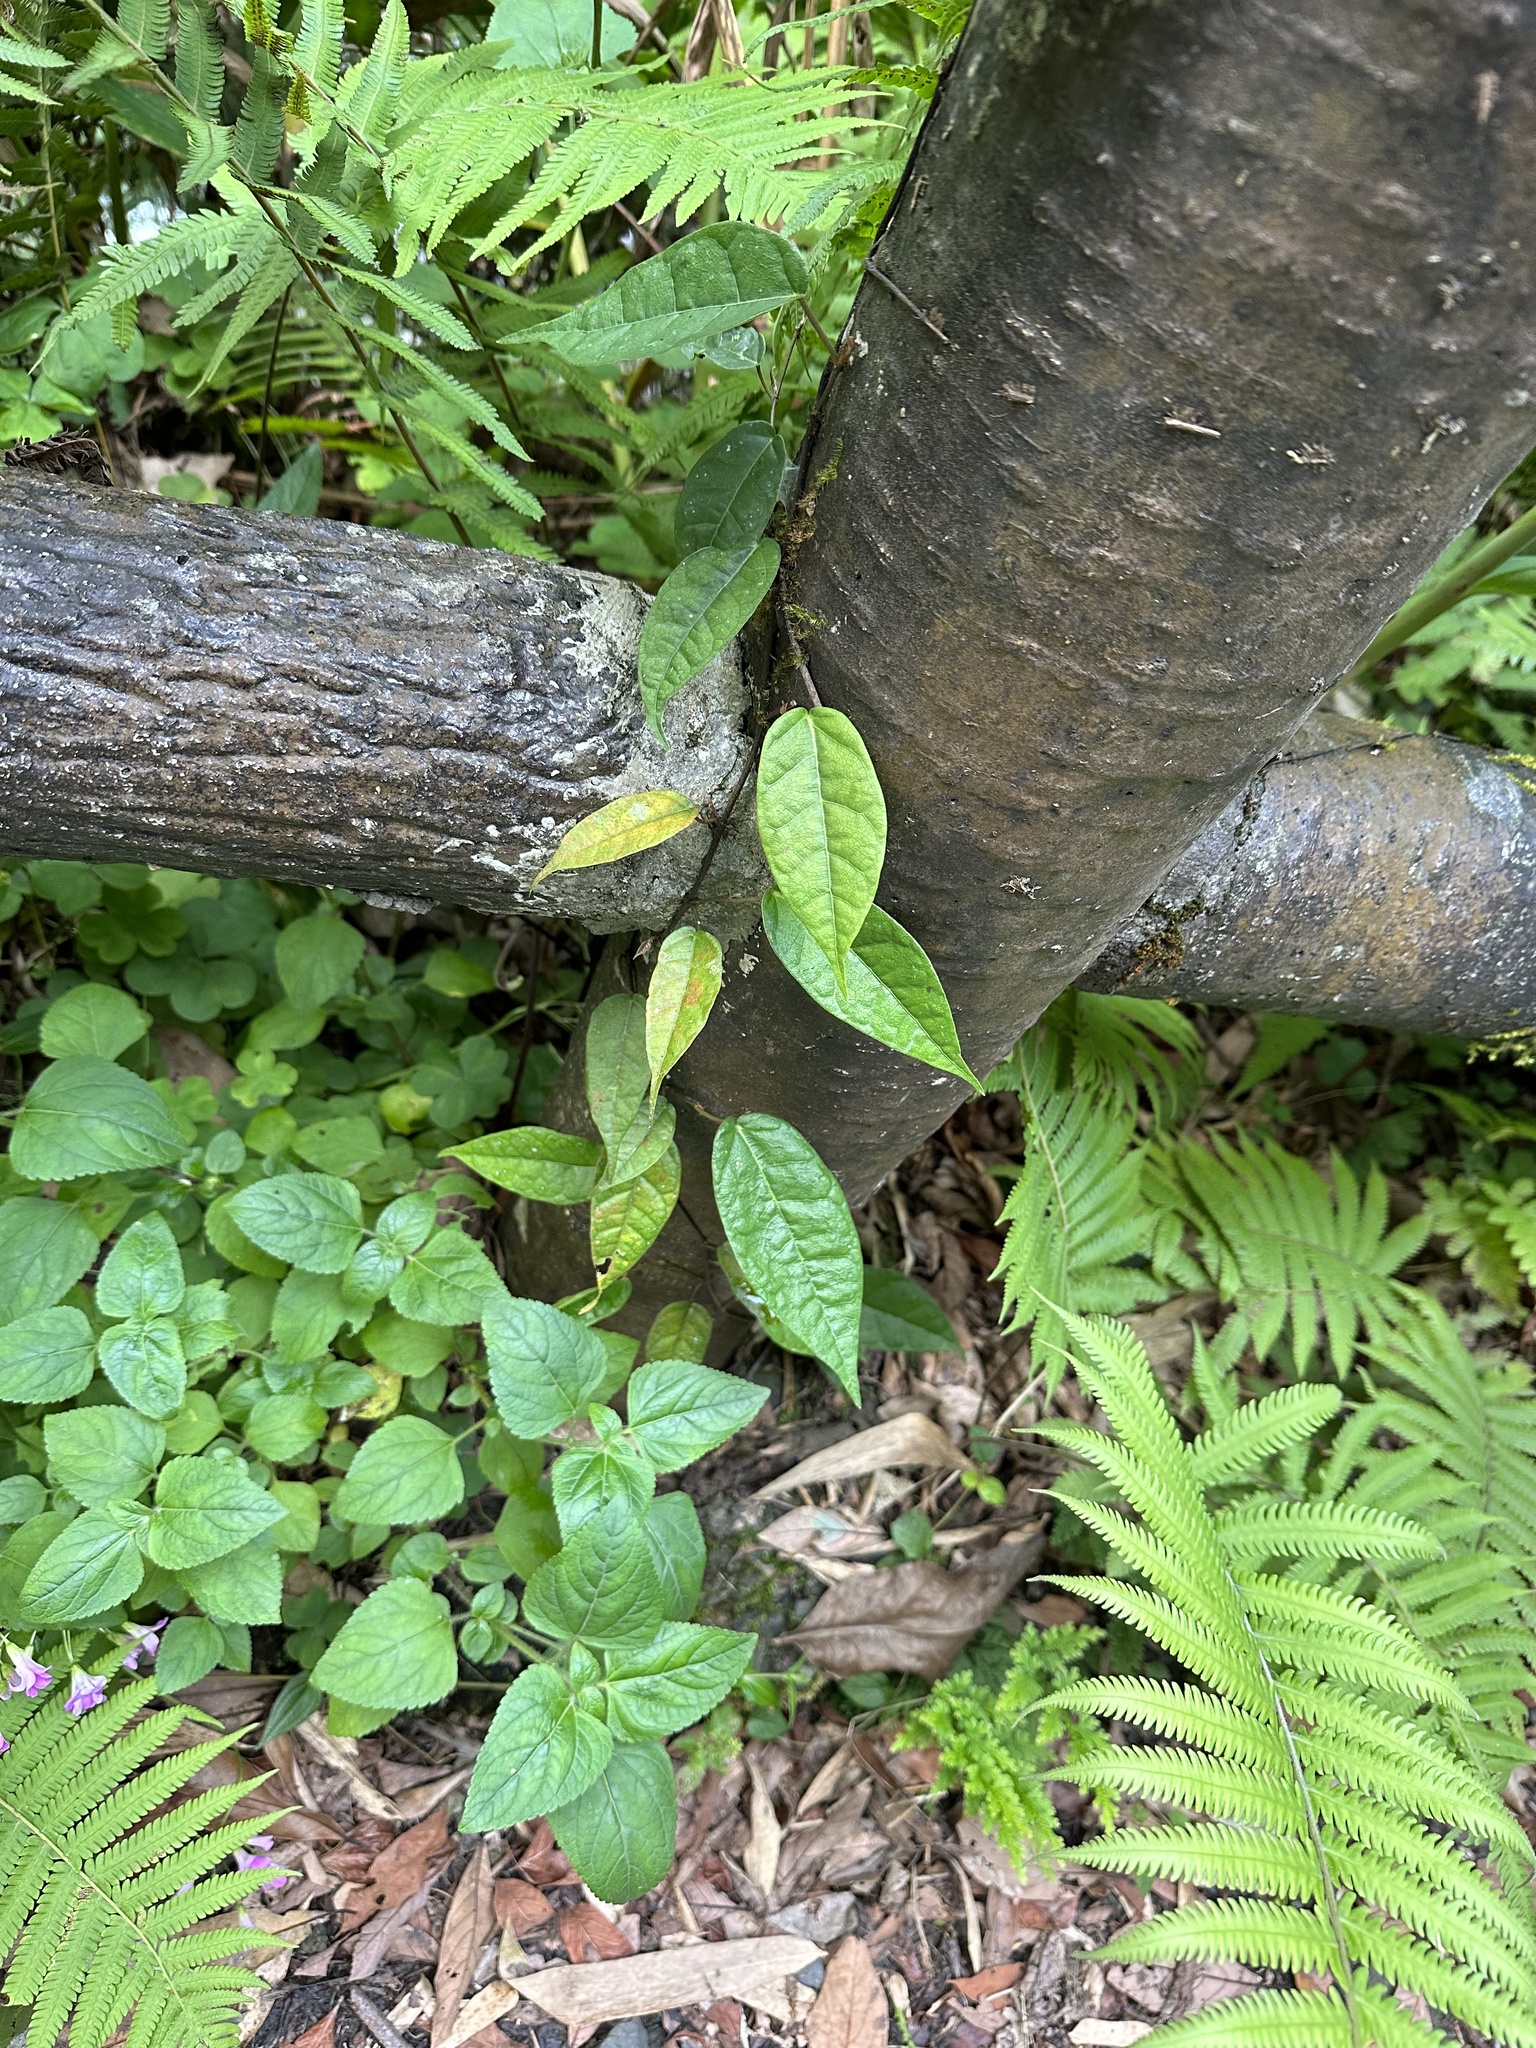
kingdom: Plantae
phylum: Tracheophyta
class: Magnoliopsida
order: Rosales
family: Moraceae
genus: Ficus
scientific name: Ficus sarmentosa
